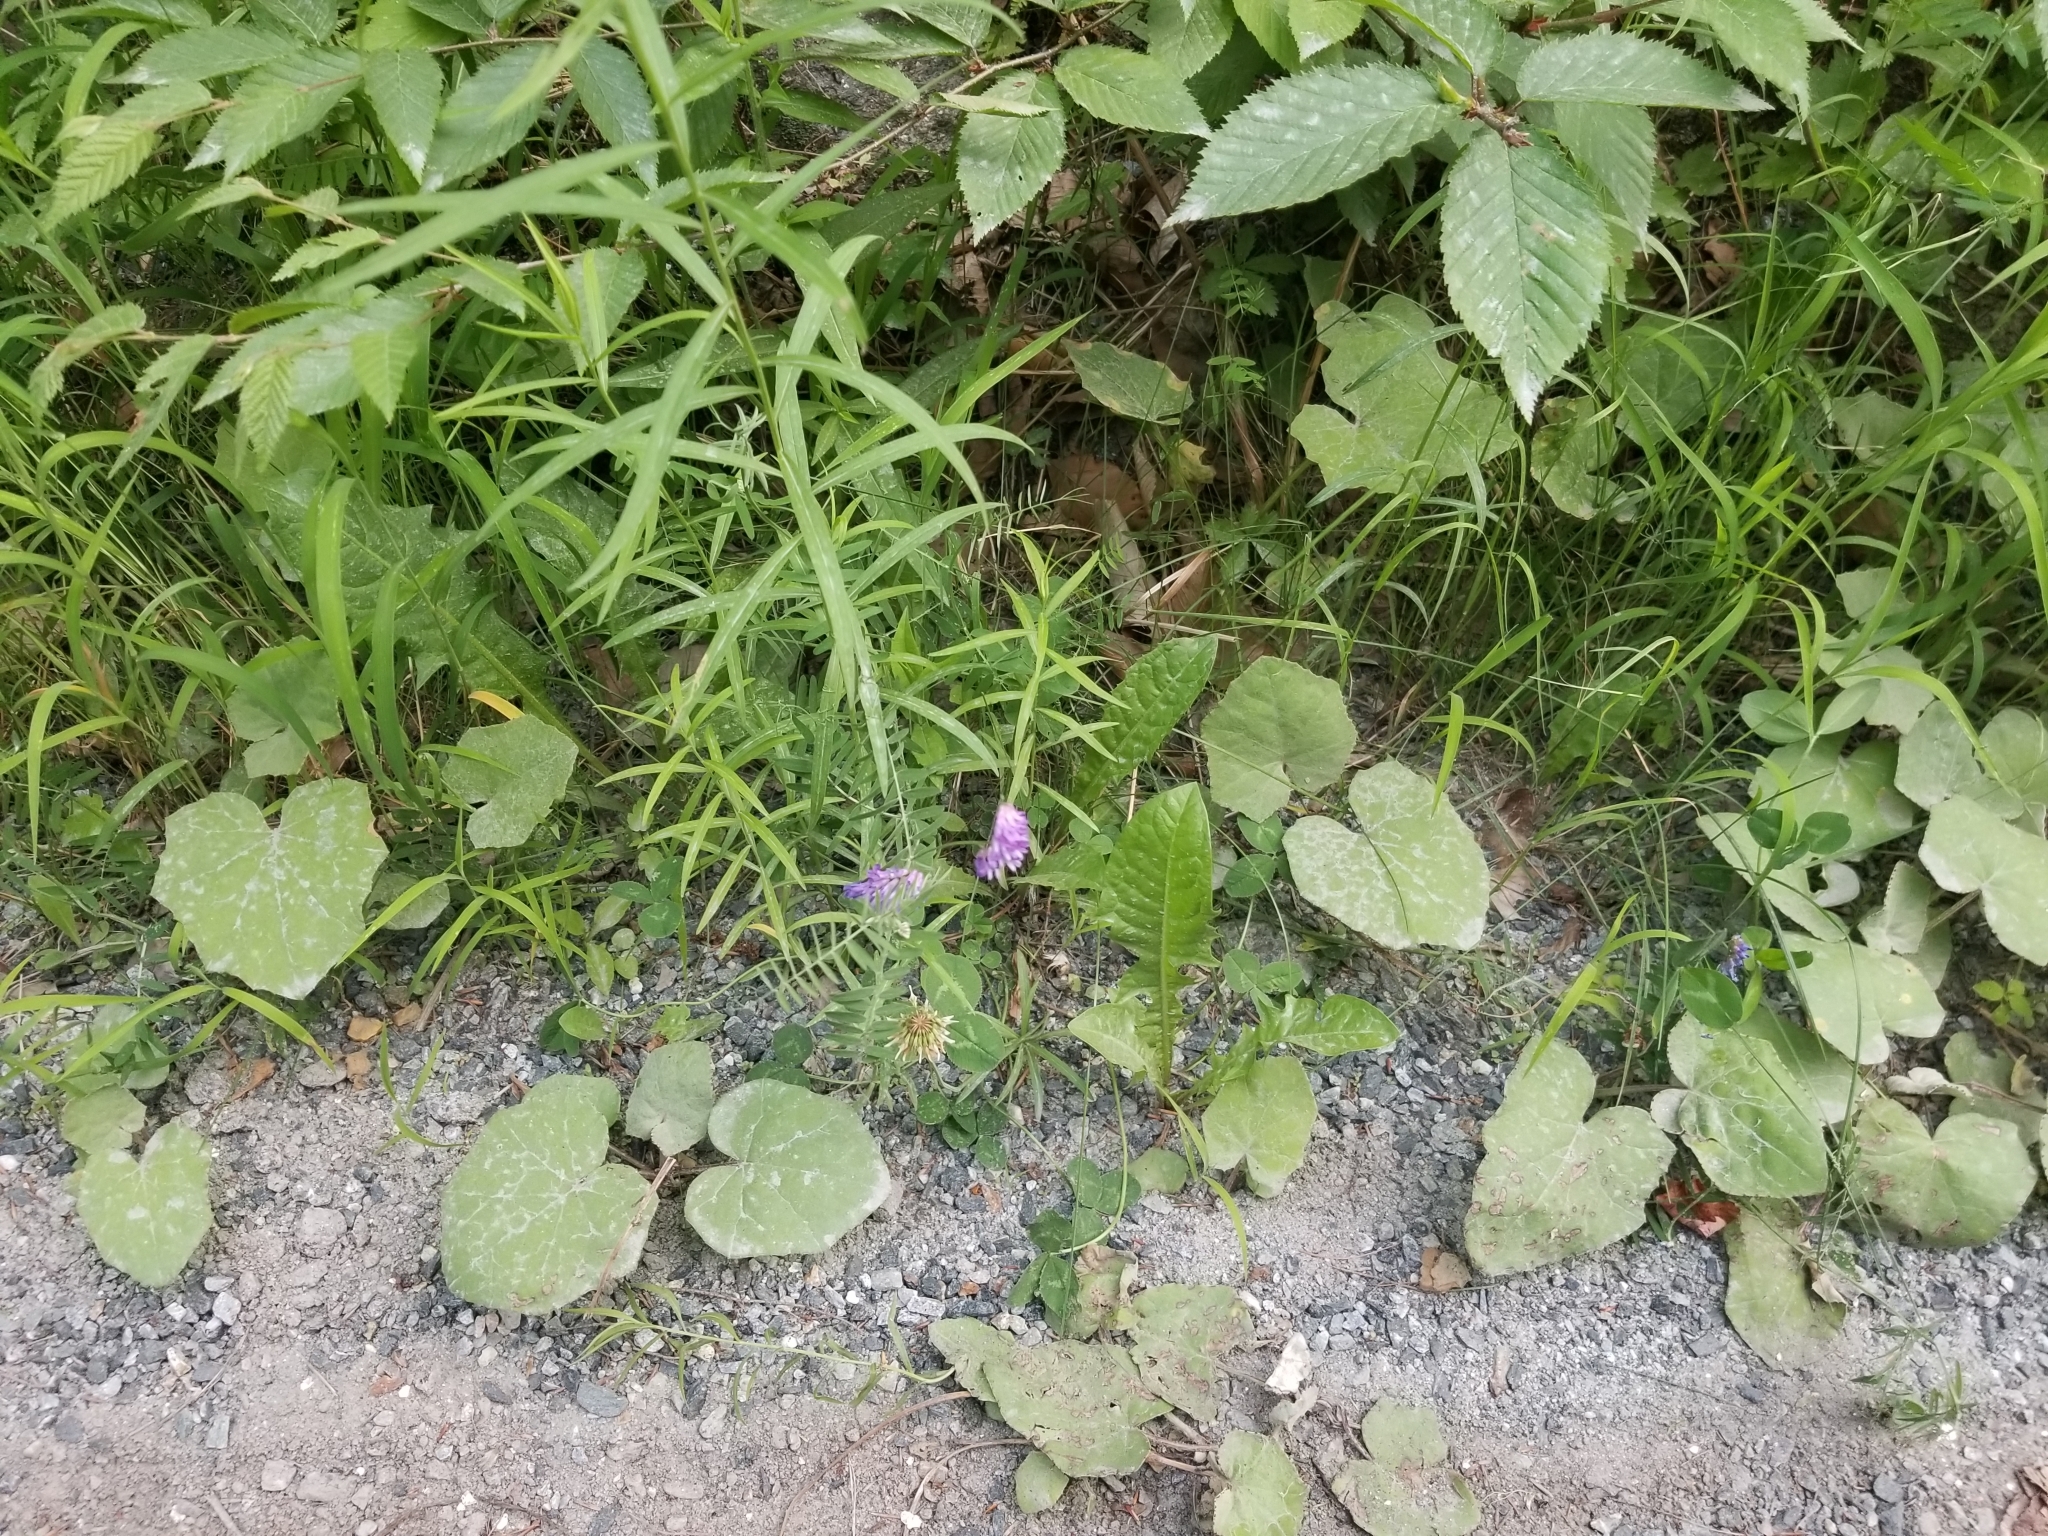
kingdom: Plantae
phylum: Tracheophyta
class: Magnoliopsida
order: Fabales
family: Fabaceae
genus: Vicia
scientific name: Vicia cracca
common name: Bird vetch
